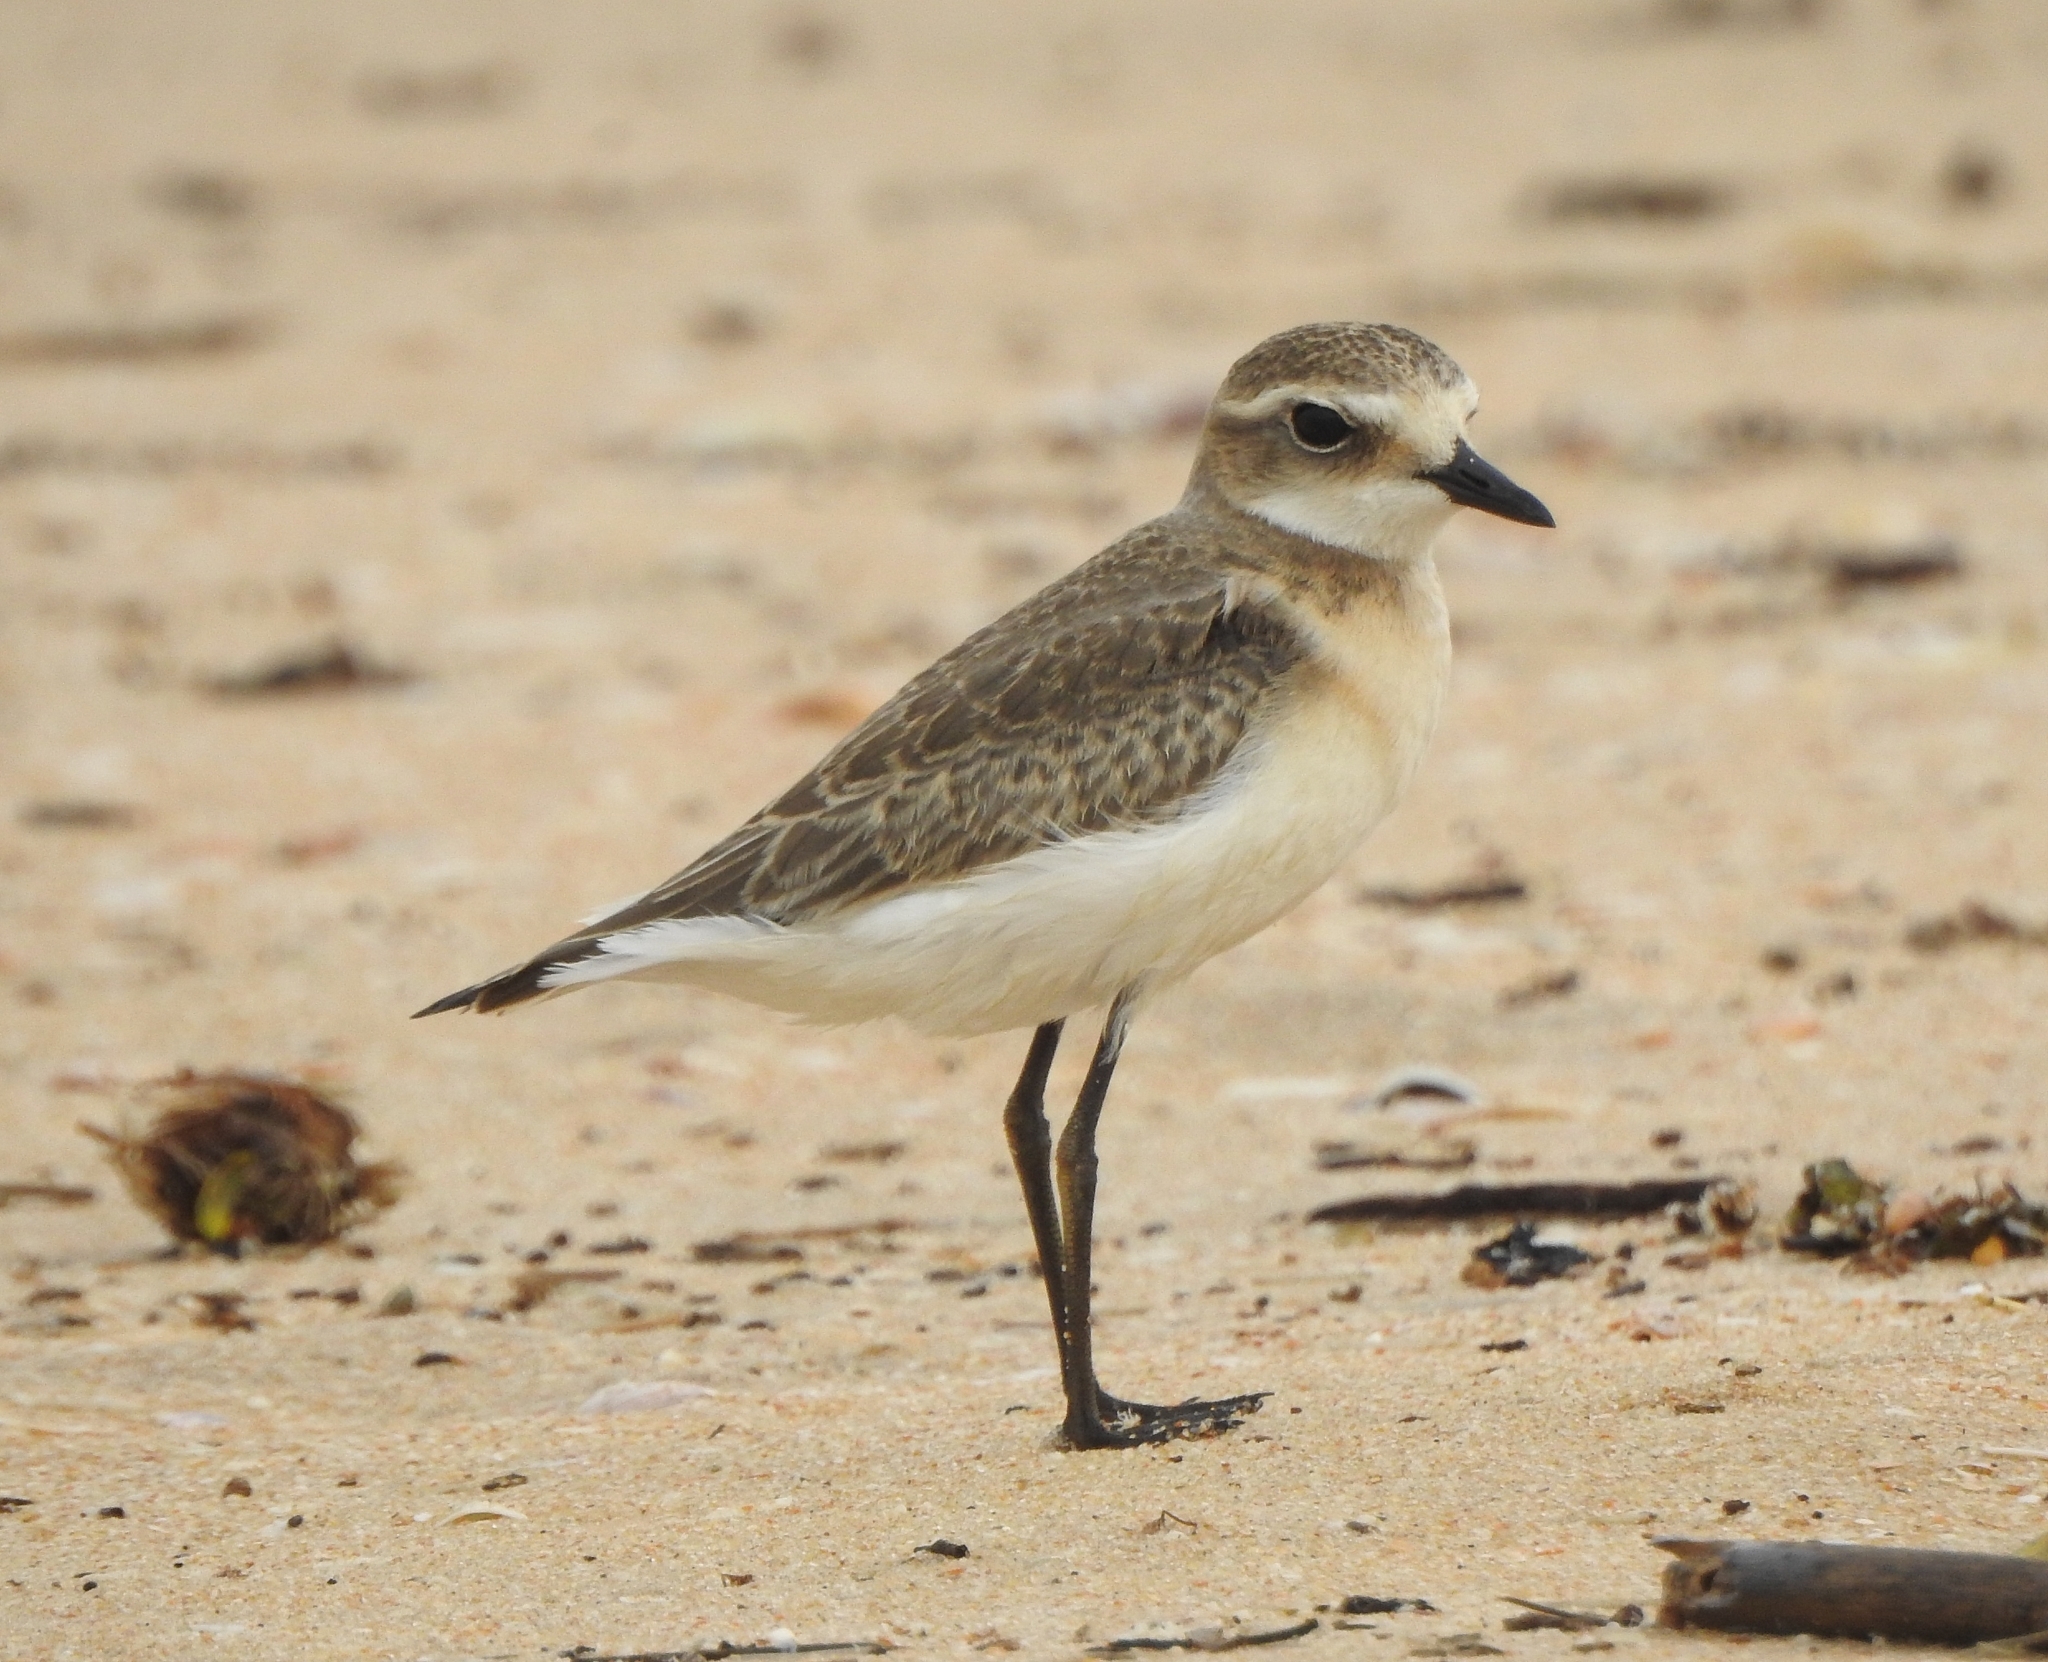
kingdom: Animalia
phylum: Chordata
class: Aves
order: Charadriiformes
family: Charadriidae
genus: Anarhynchus
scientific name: Anarhynchus
